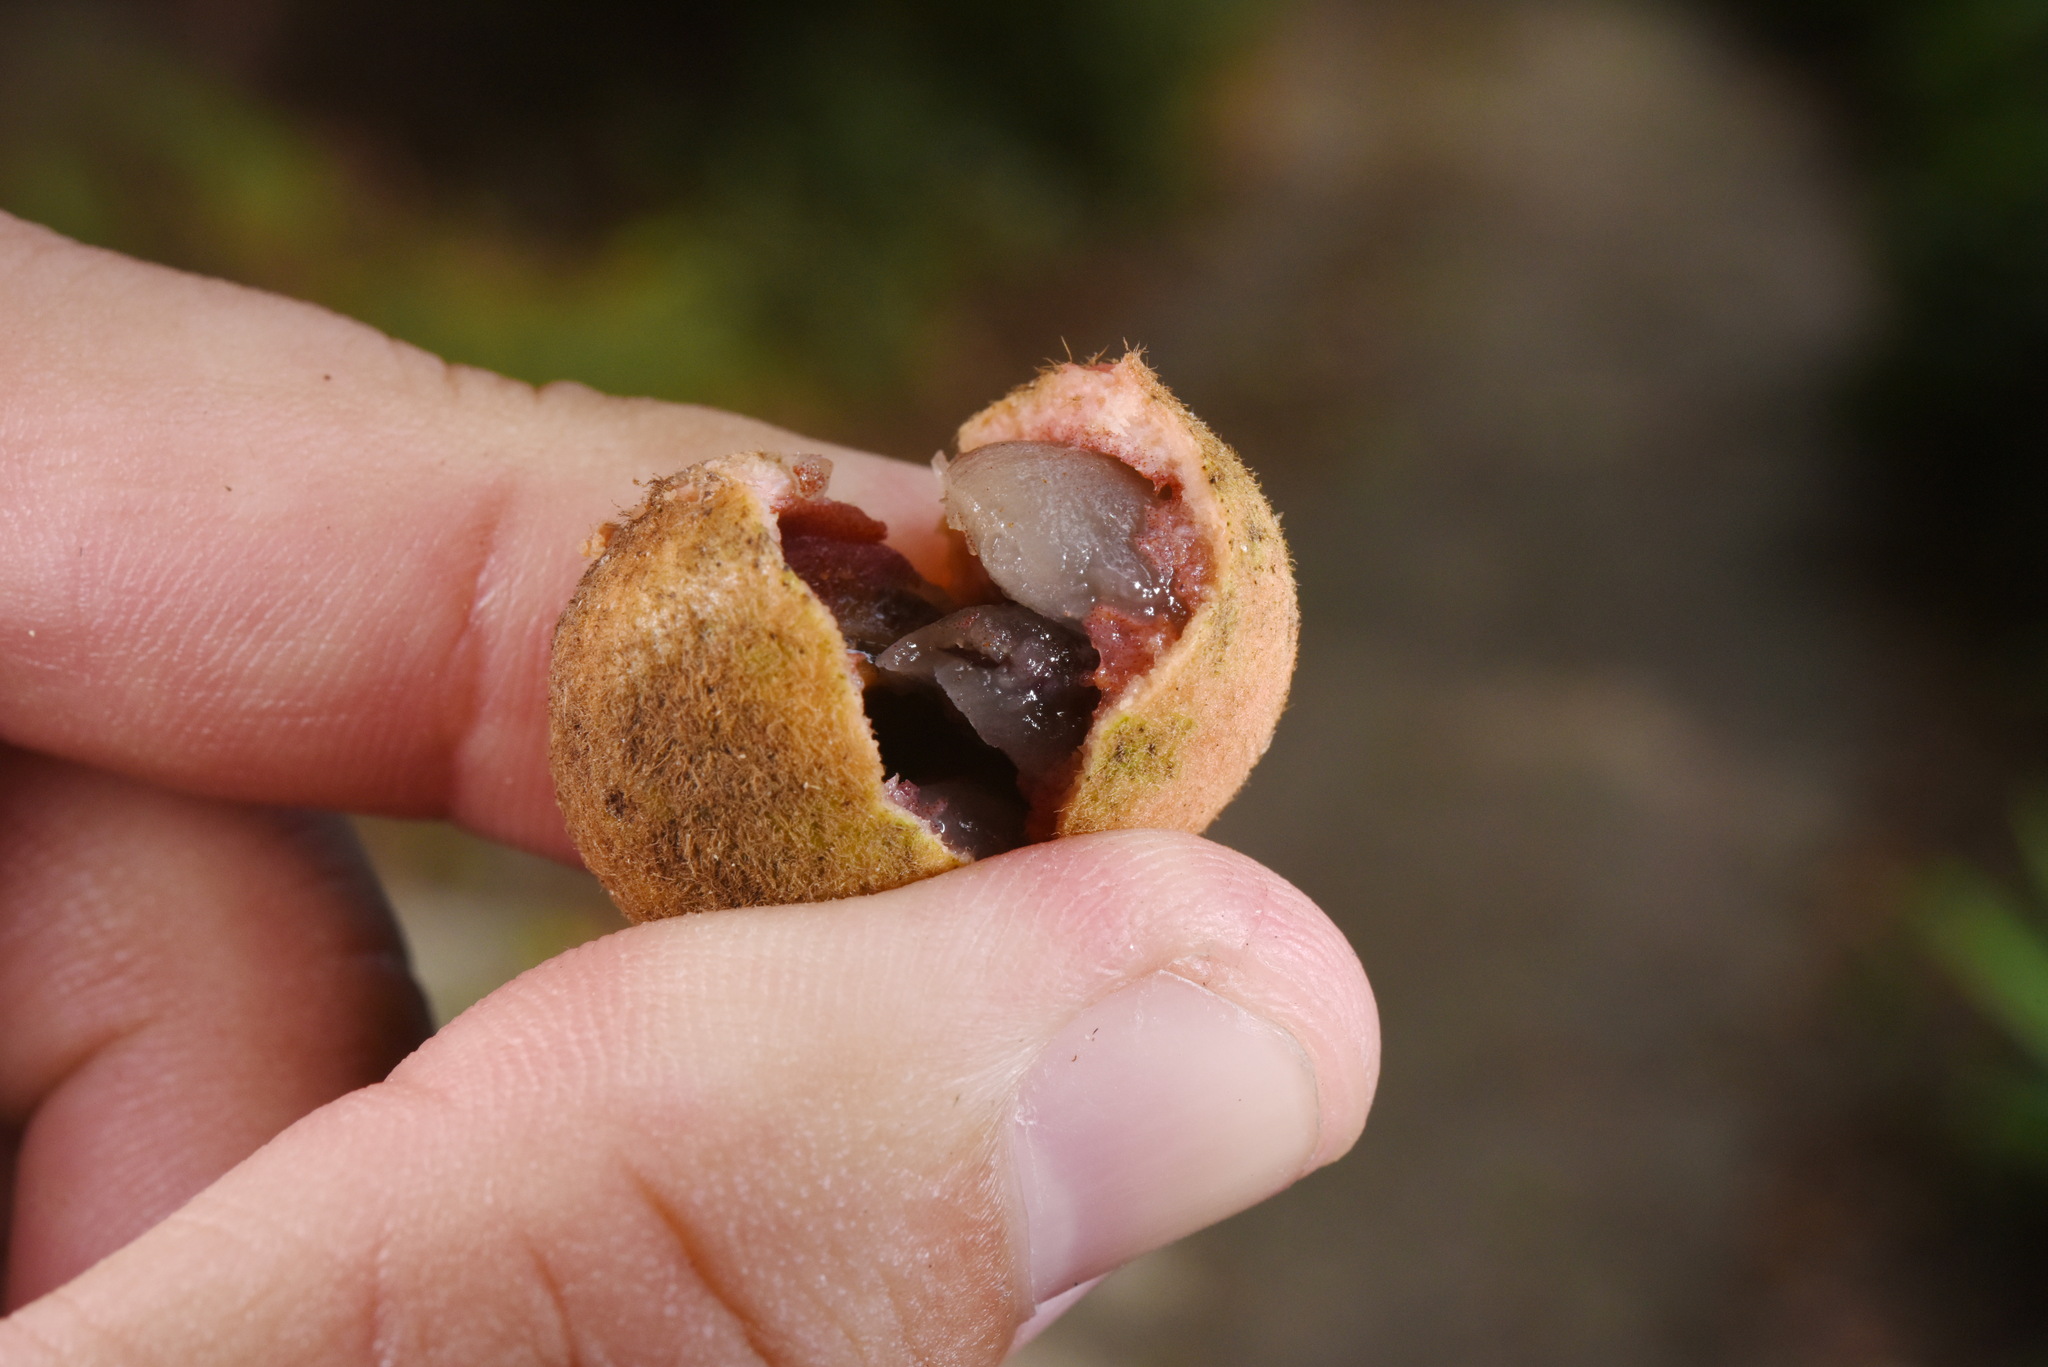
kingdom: Plantae
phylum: Tracheophyta
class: Magnoliopsida
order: Magnoliales
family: Annonaceae
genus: Fissistigma
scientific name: Fissistigma oldhamii
